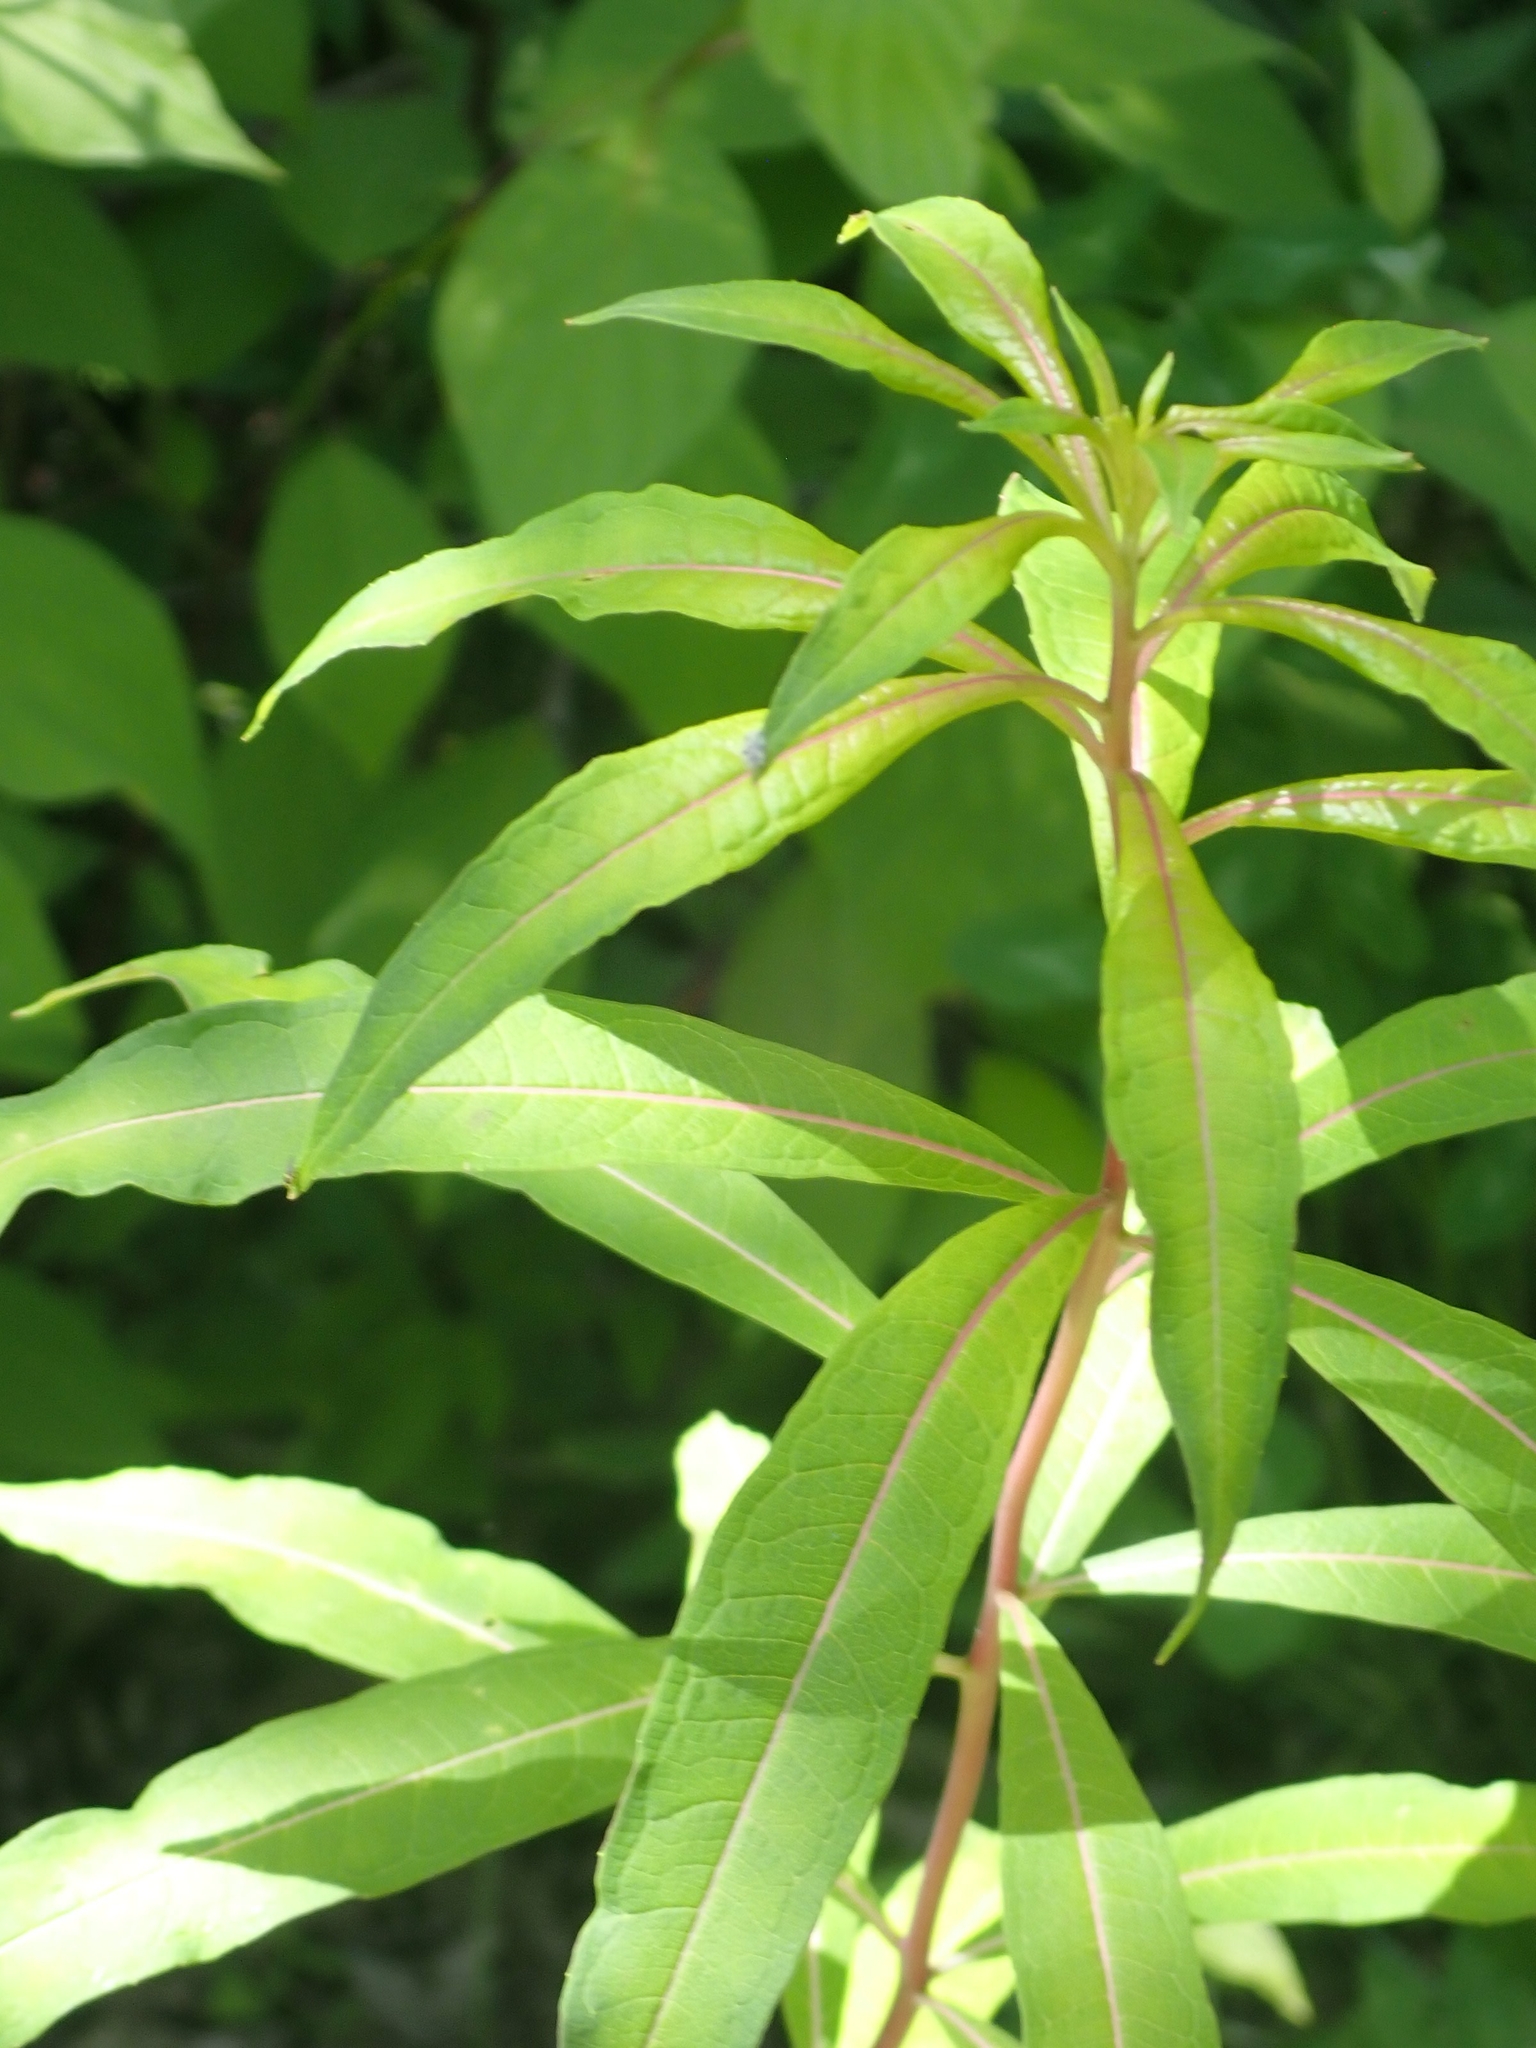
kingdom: Plantae
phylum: Tracheophyta
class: Magnoliopsida
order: Myrtales
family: Onagraceae
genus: Chamaenerion
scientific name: Chamaenerion angustifolium
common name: Fireweed
